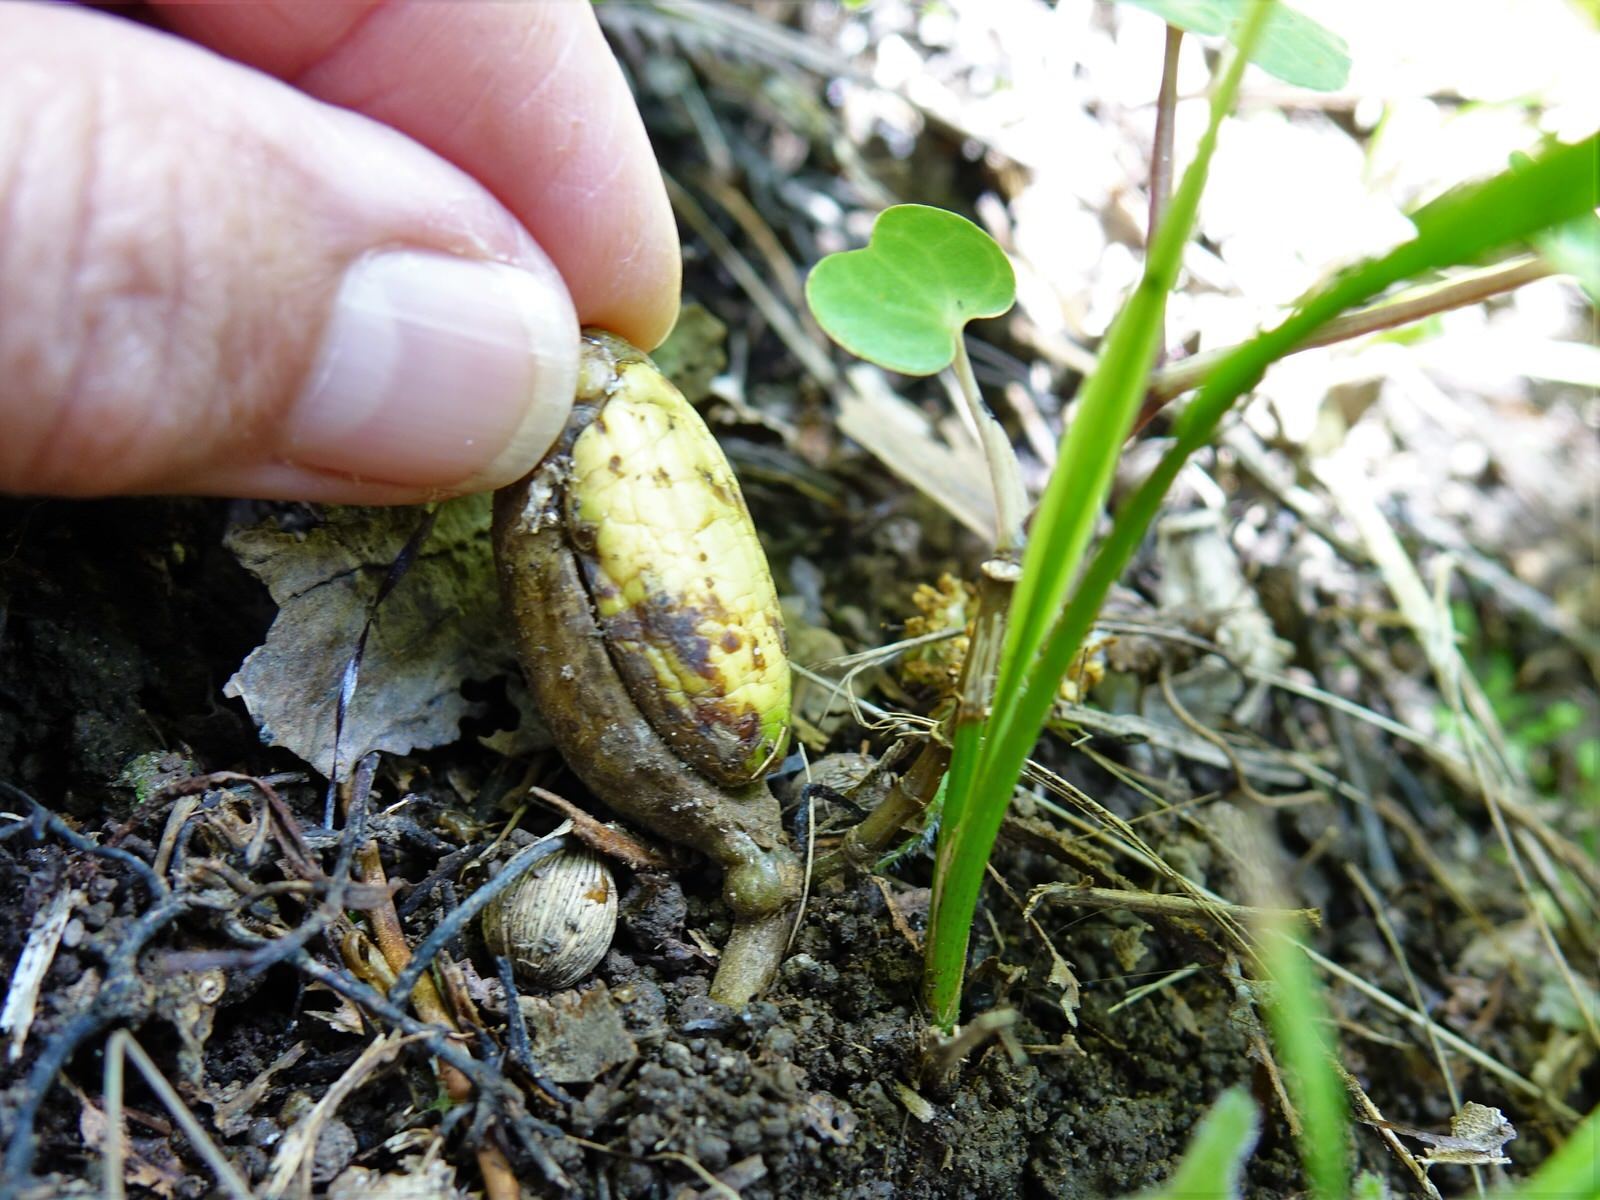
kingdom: Plantae
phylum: Tracheophyta
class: Magnoliopsida
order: Cucurbitales
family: Corynocarpaceae
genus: Corynocarpus
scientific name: Corynocarpus laevigatus
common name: New zealand laurel
